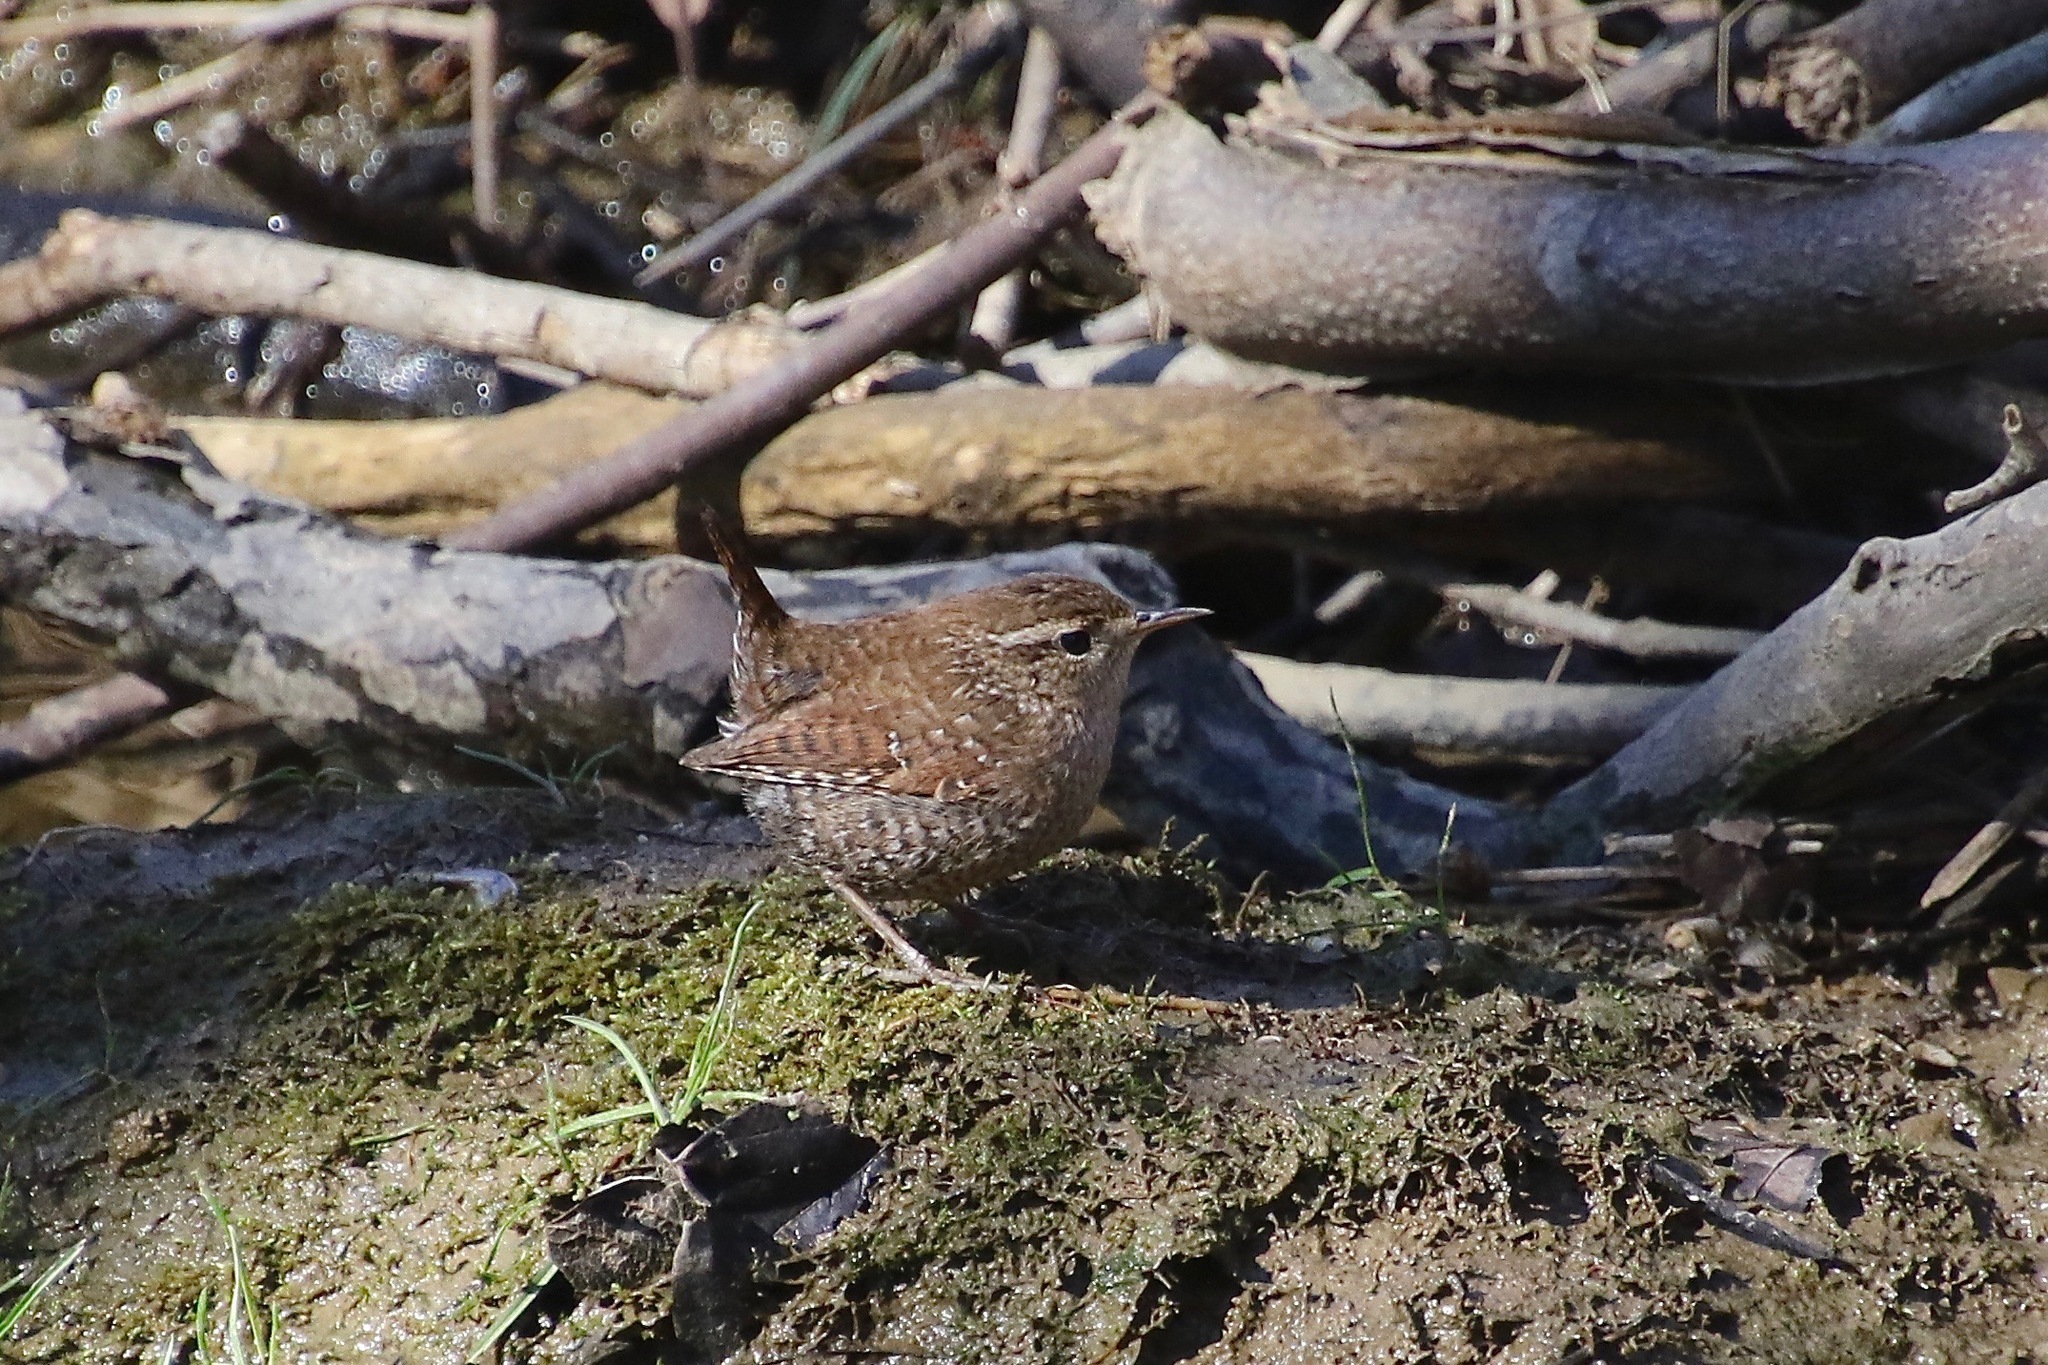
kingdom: Animalia
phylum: Chordata
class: Aves
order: Passeriformes
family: Troglodytidae
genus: Troglodytes
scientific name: Troglodytes hiemalis
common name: Winter wren
